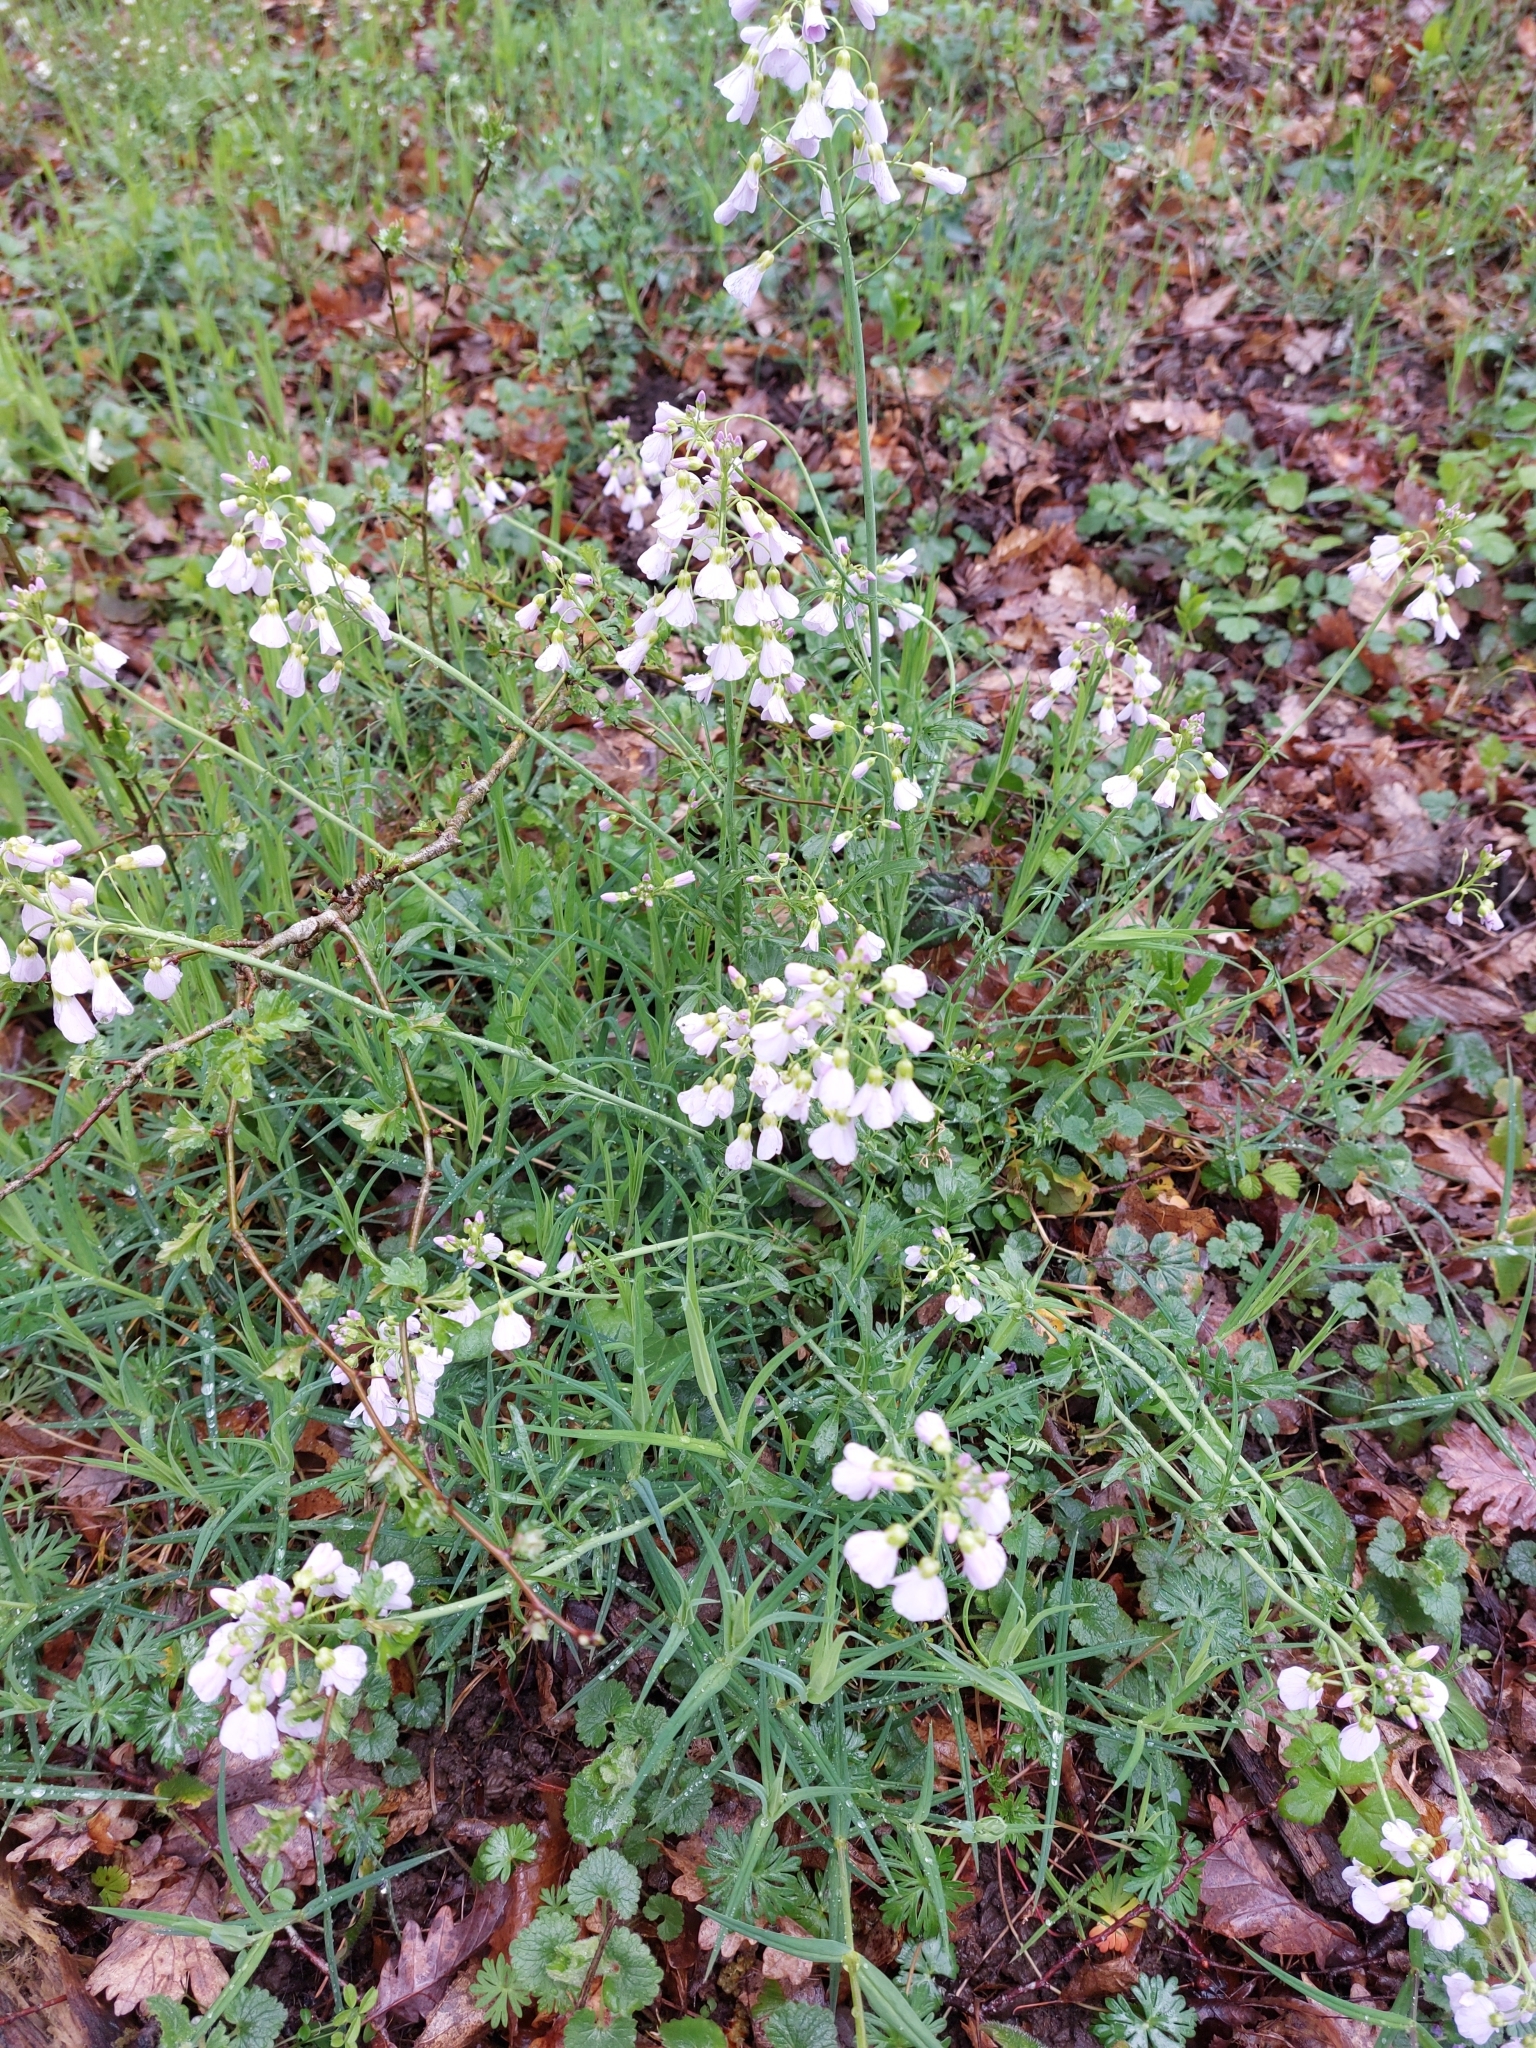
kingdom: Plantae
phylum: Tracheophyta
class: Magnoliopsida
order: Brassicales
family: Brassicaceae
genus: Cardamine
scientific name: Cardamine pratensis
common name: Cuckoo flower
